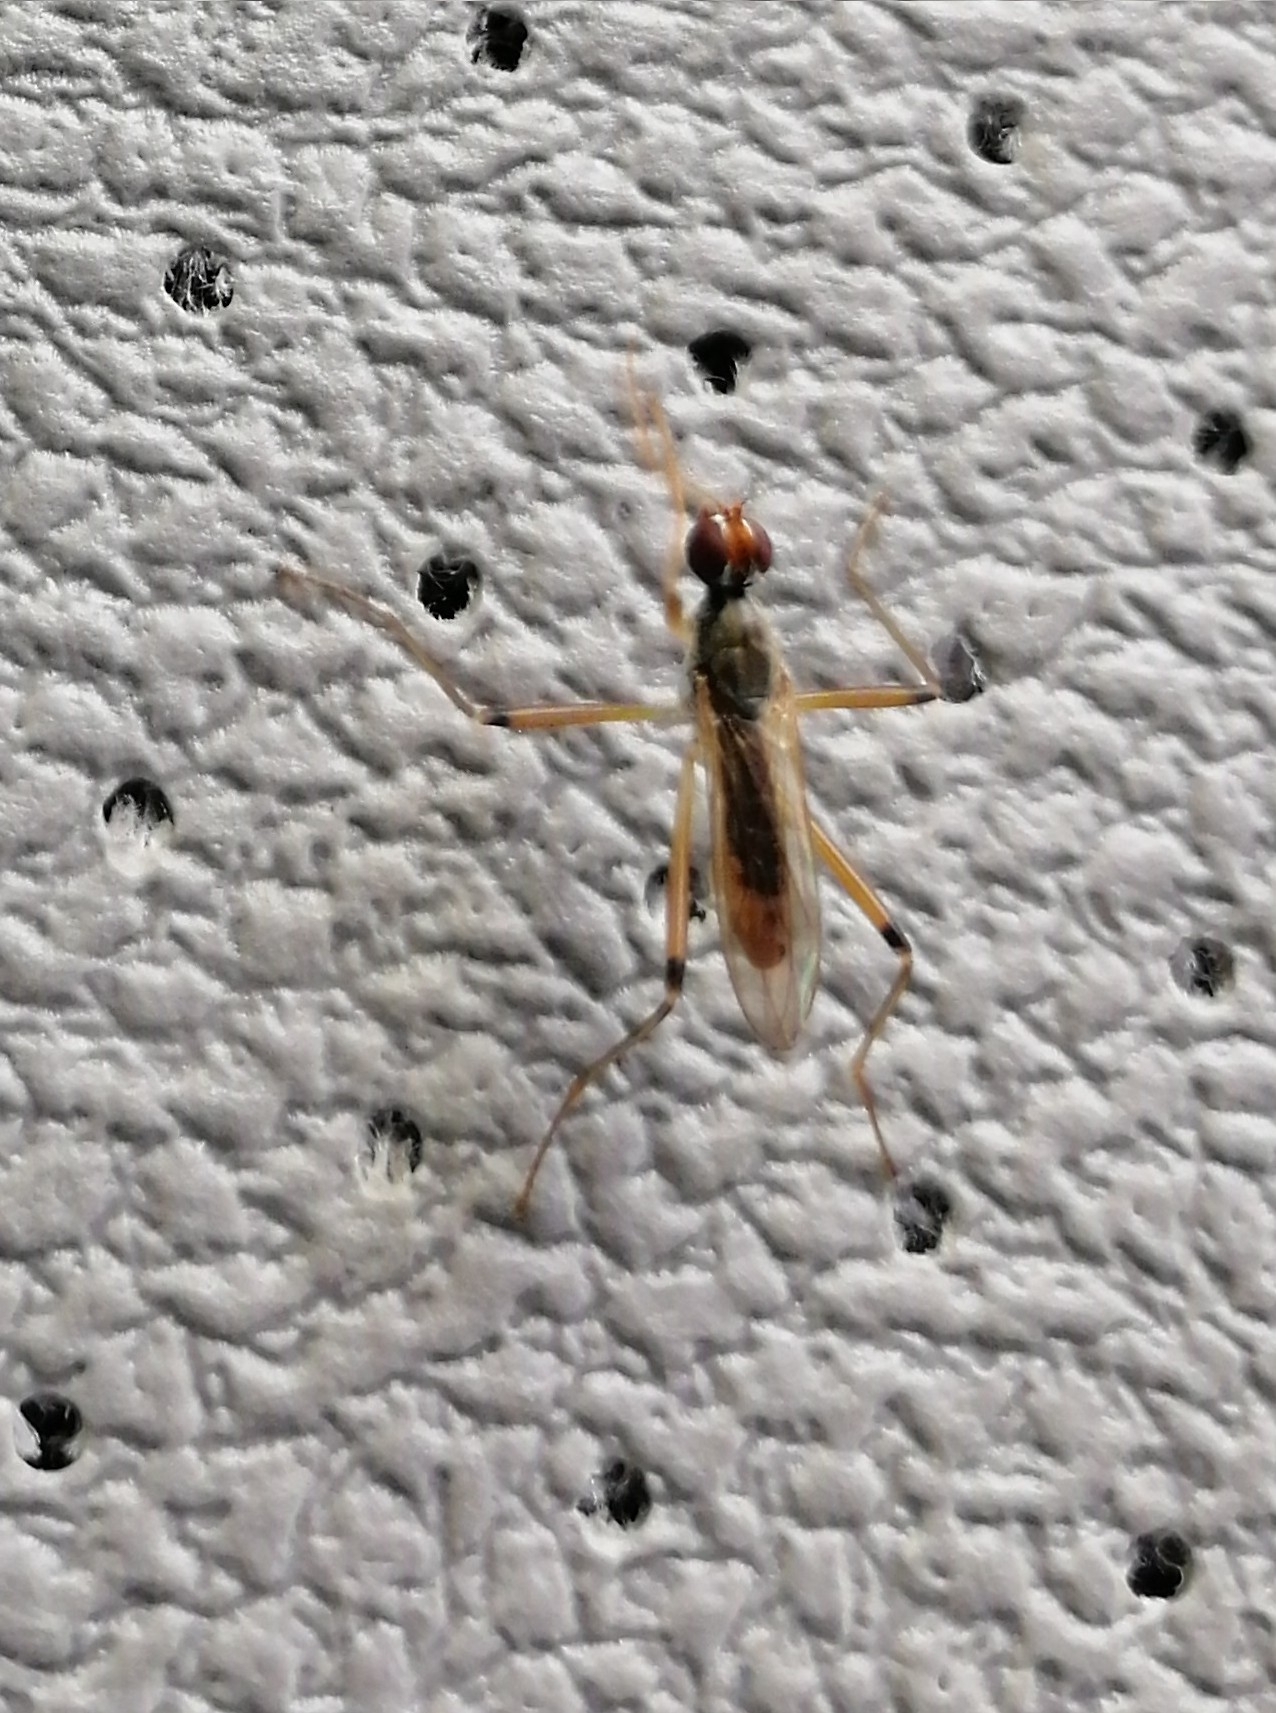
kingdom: Animalia
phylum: Arthropoda
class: Insecta
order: Diptera
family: Micropezidae
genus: Compsobata
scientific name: Compsobata cibaria
